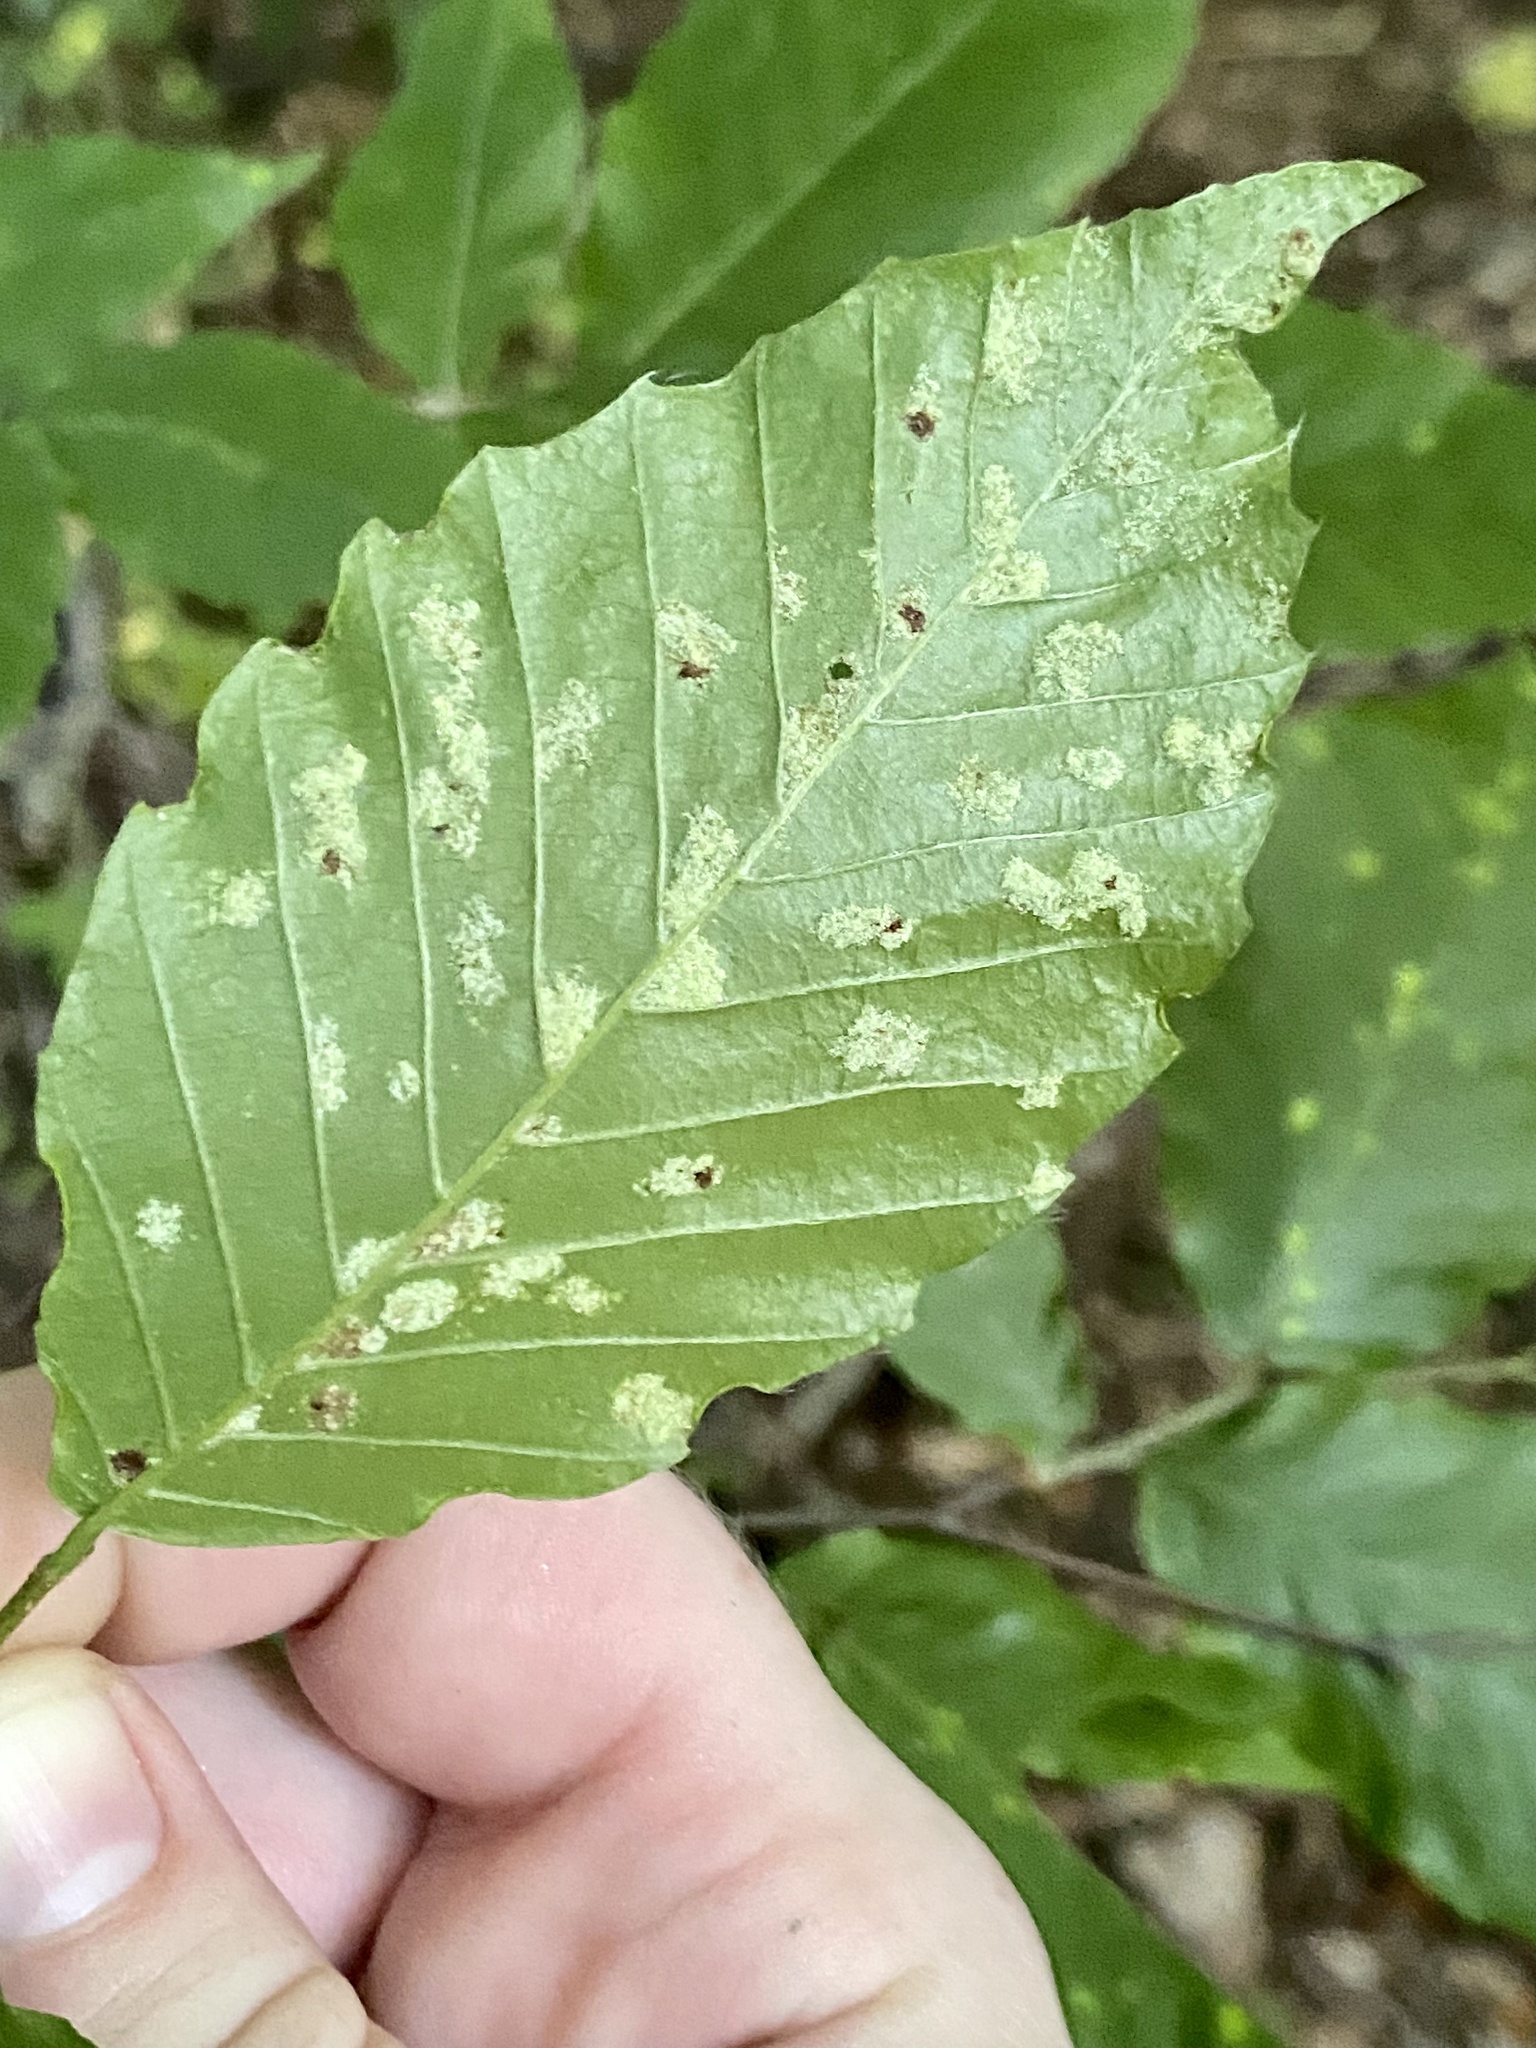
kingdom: Animalia
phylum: Arthropoda
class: Arachnida
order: Trombidiformes
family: Eriophyidae
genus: Acalitus
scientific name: Acalitus
